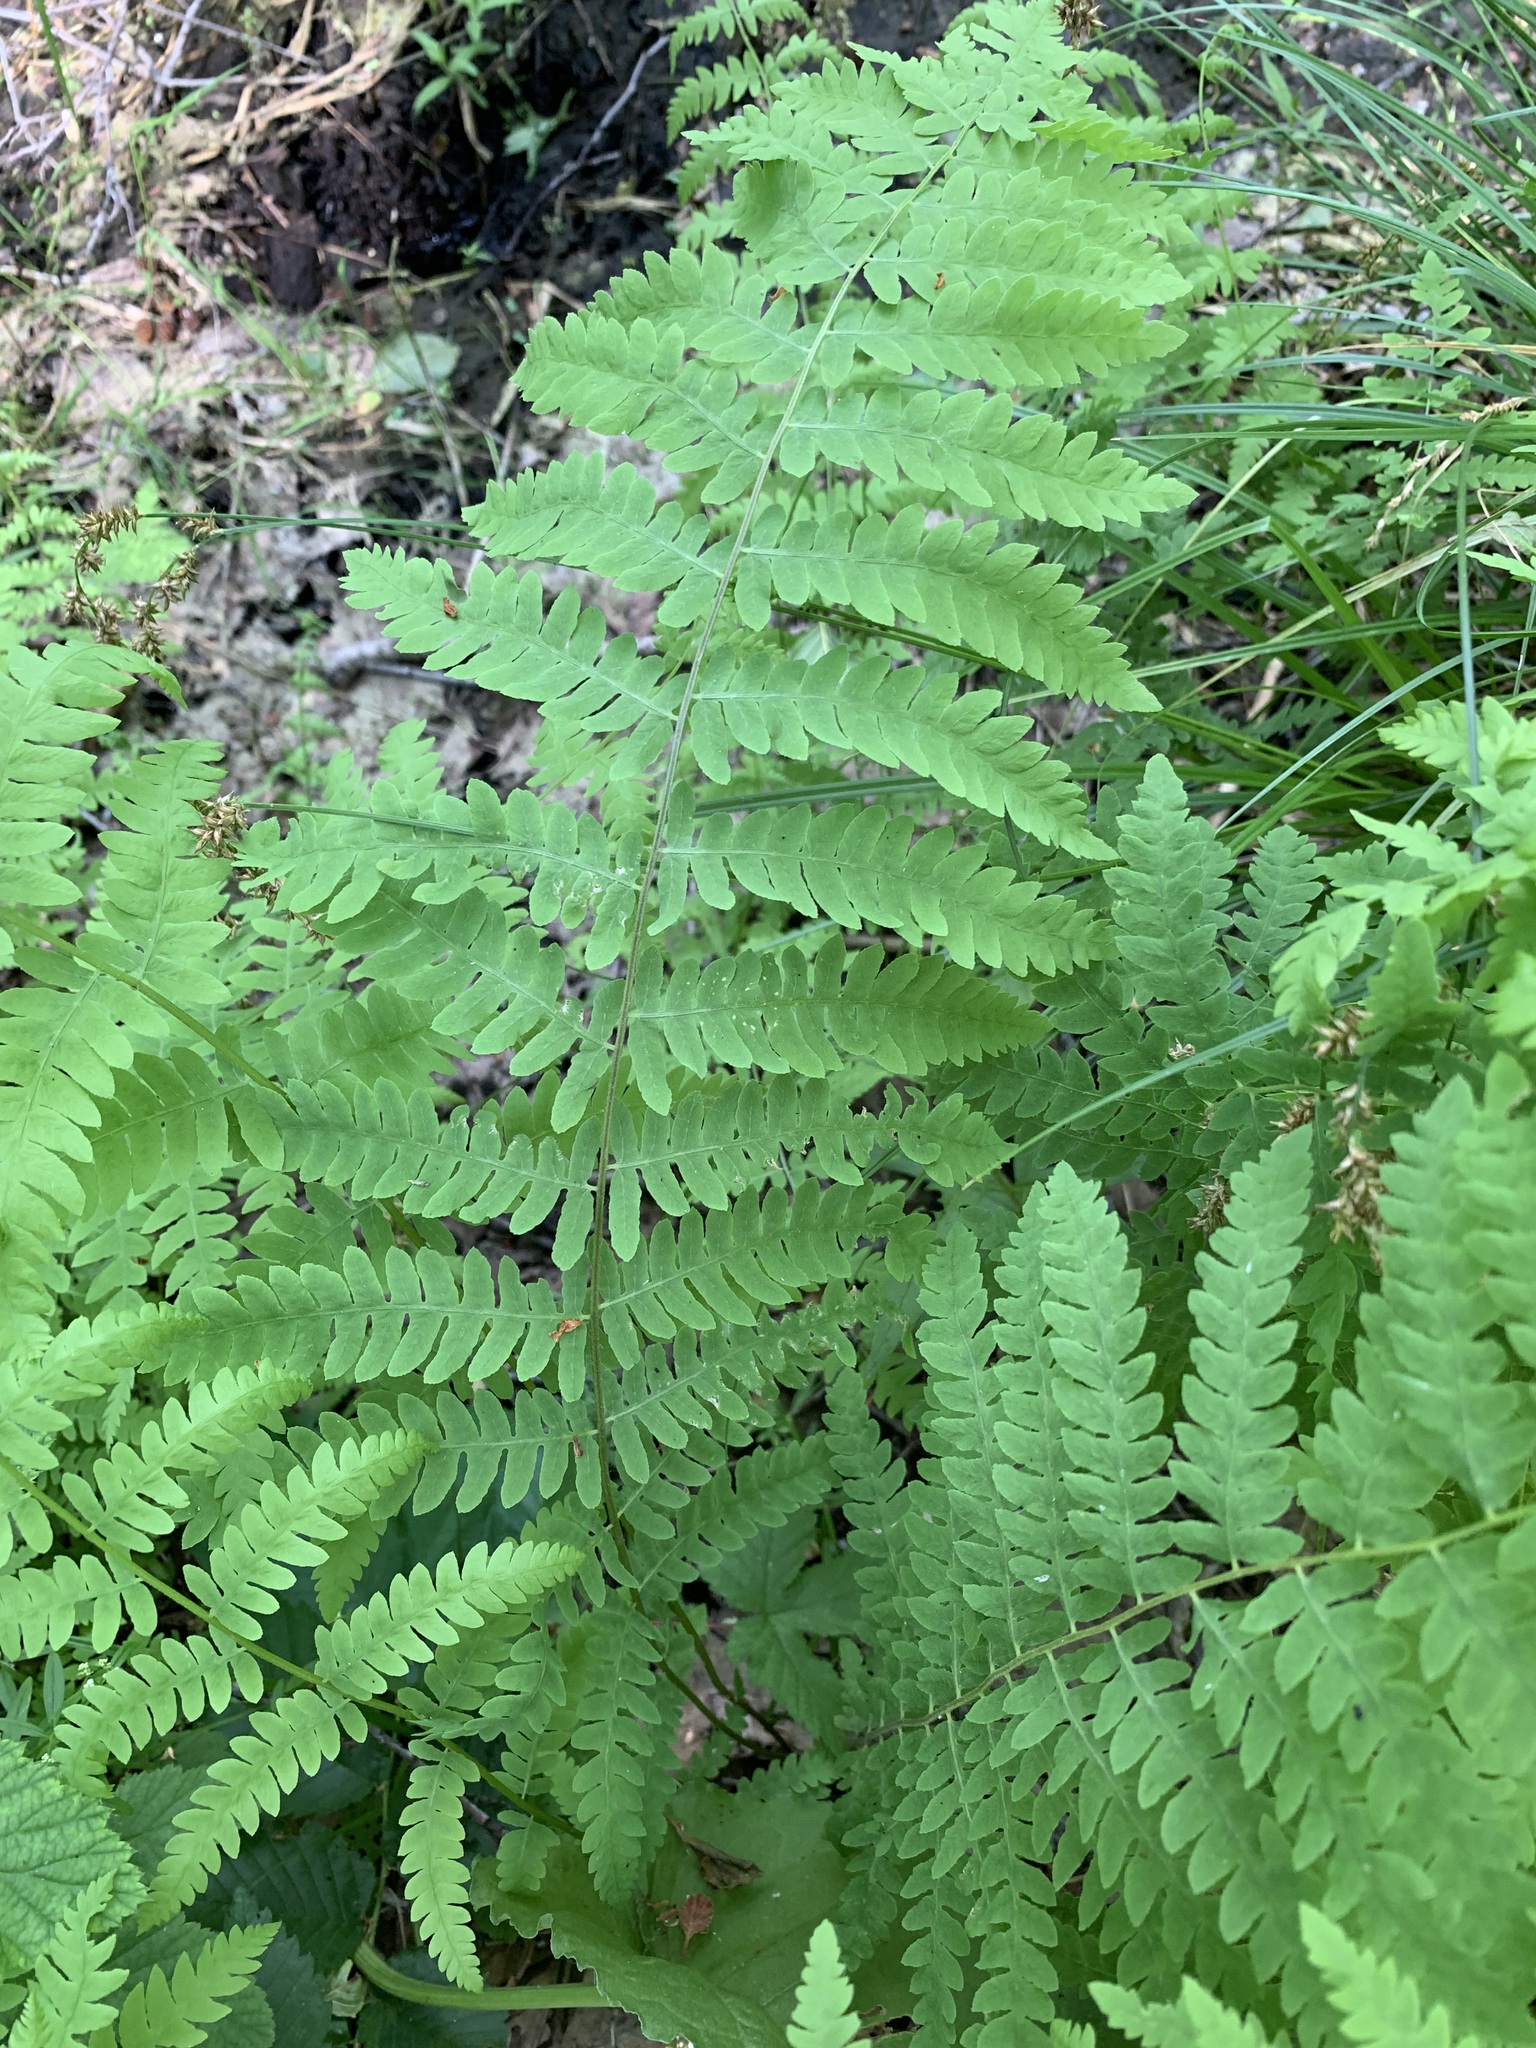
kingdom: Plantae
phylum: Tracheophyta
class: Polypodiopsida
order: Polypodiales
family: Thelypteridaceae
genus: Thelypteris
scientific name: Thelypteris palustris
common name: Marsh fern
